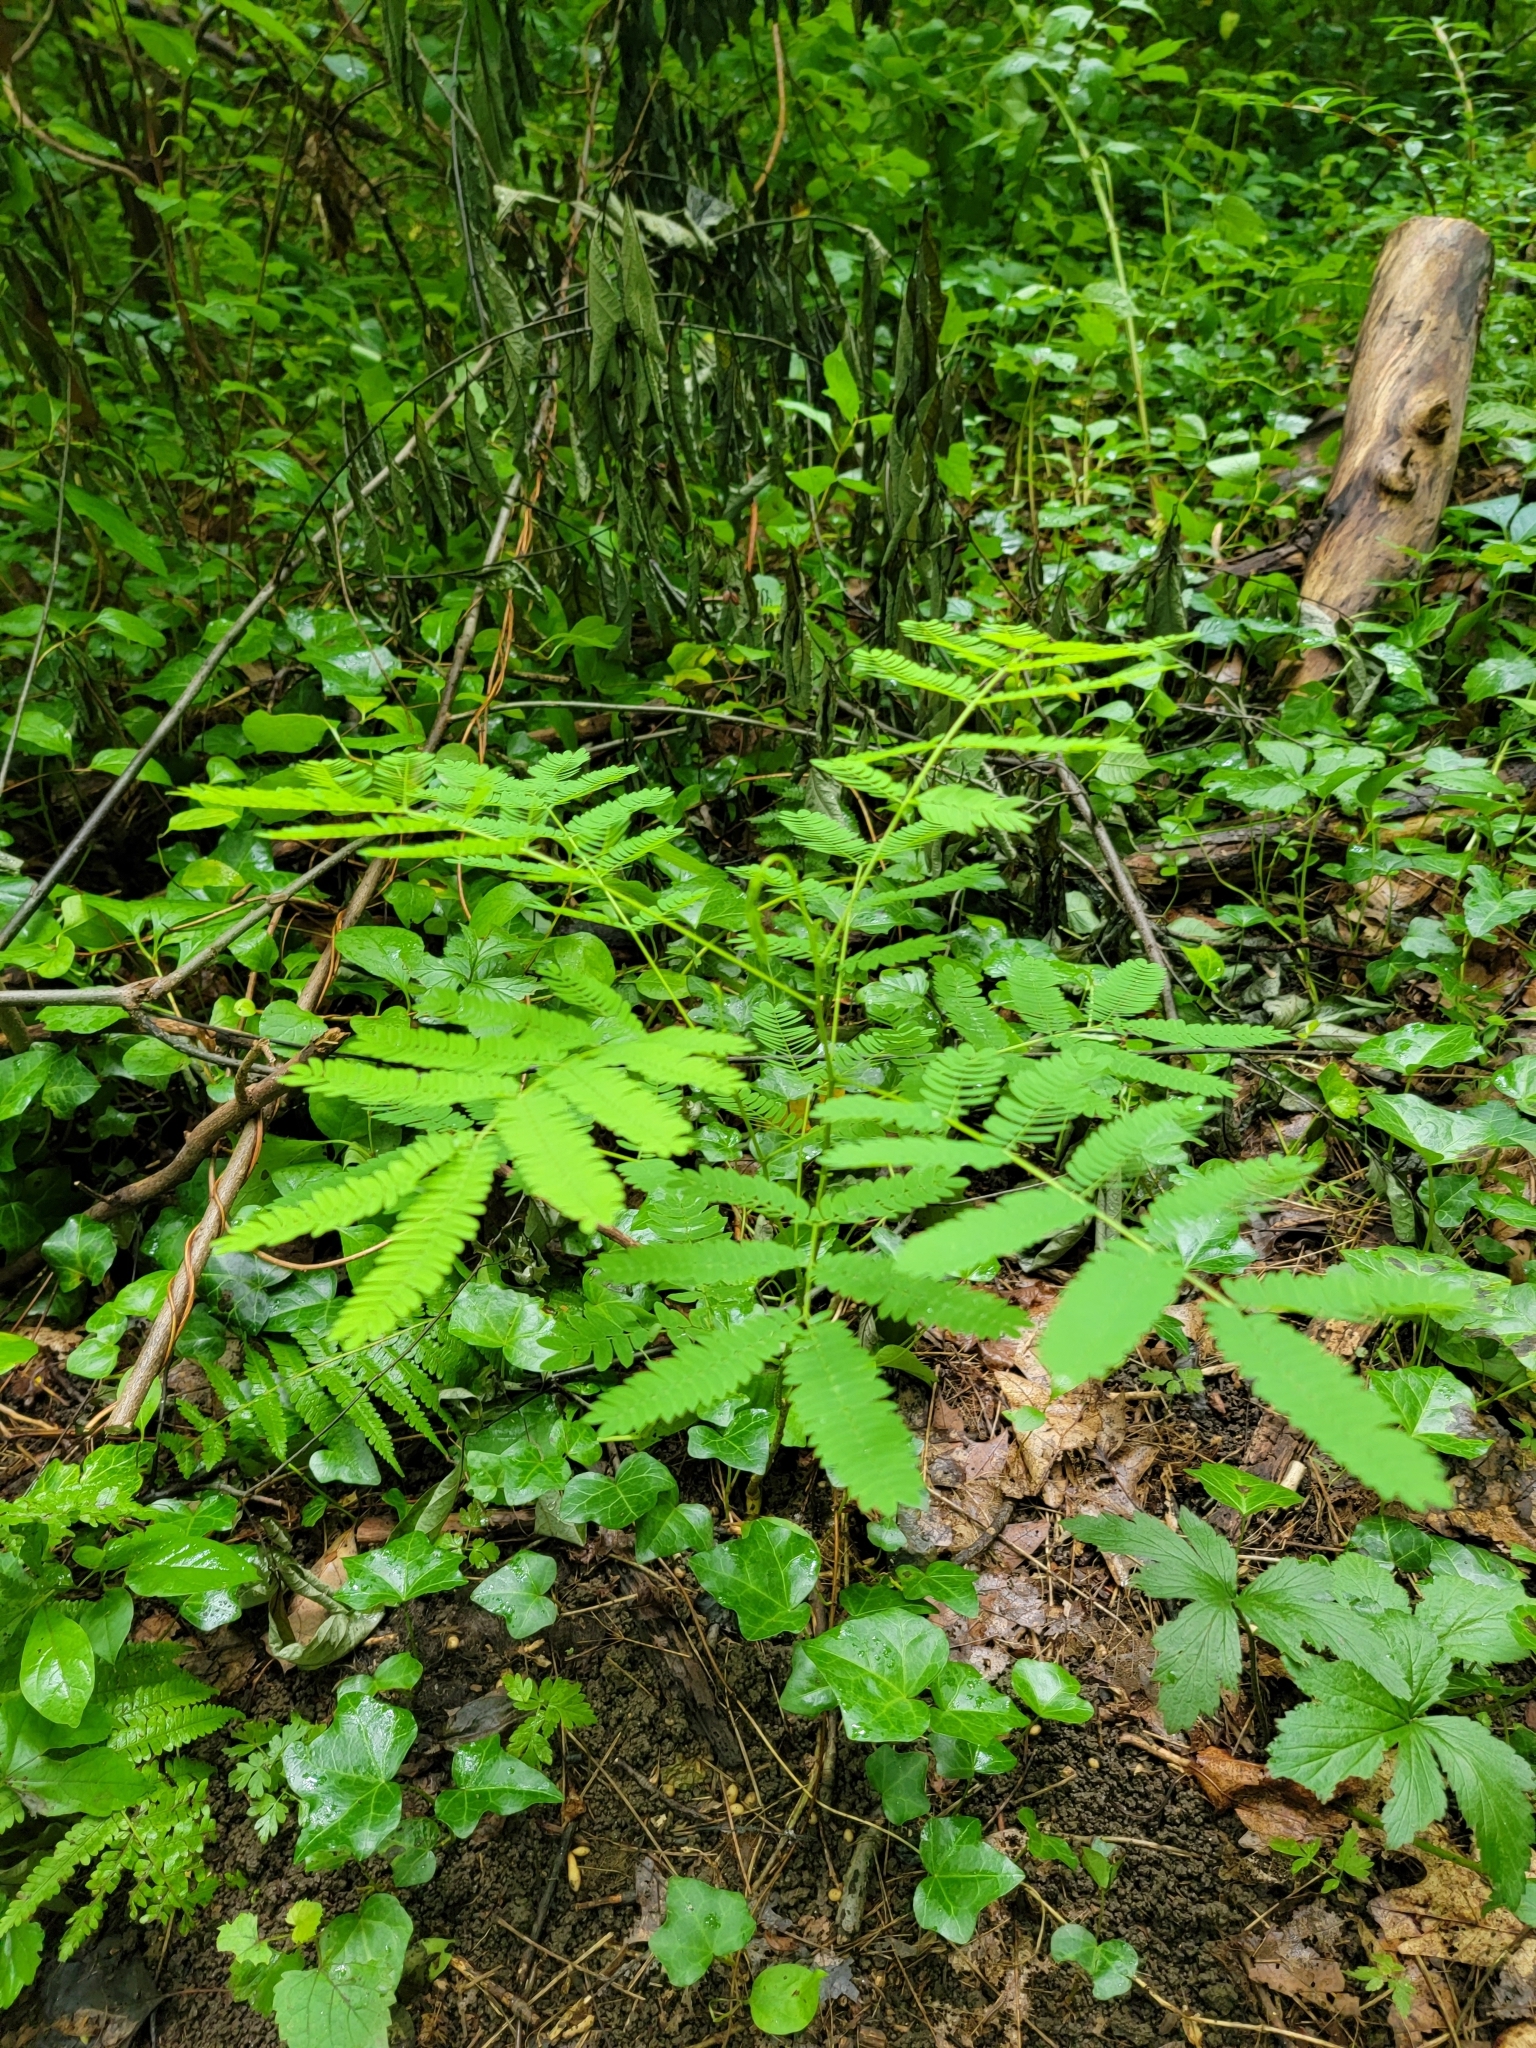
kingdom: Plantae
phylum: Tracheophyta
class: Magnoliopsida
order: Fabales
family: Fabaceae
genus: Albizia
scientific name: Albizia julibrissin
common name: Silktree
